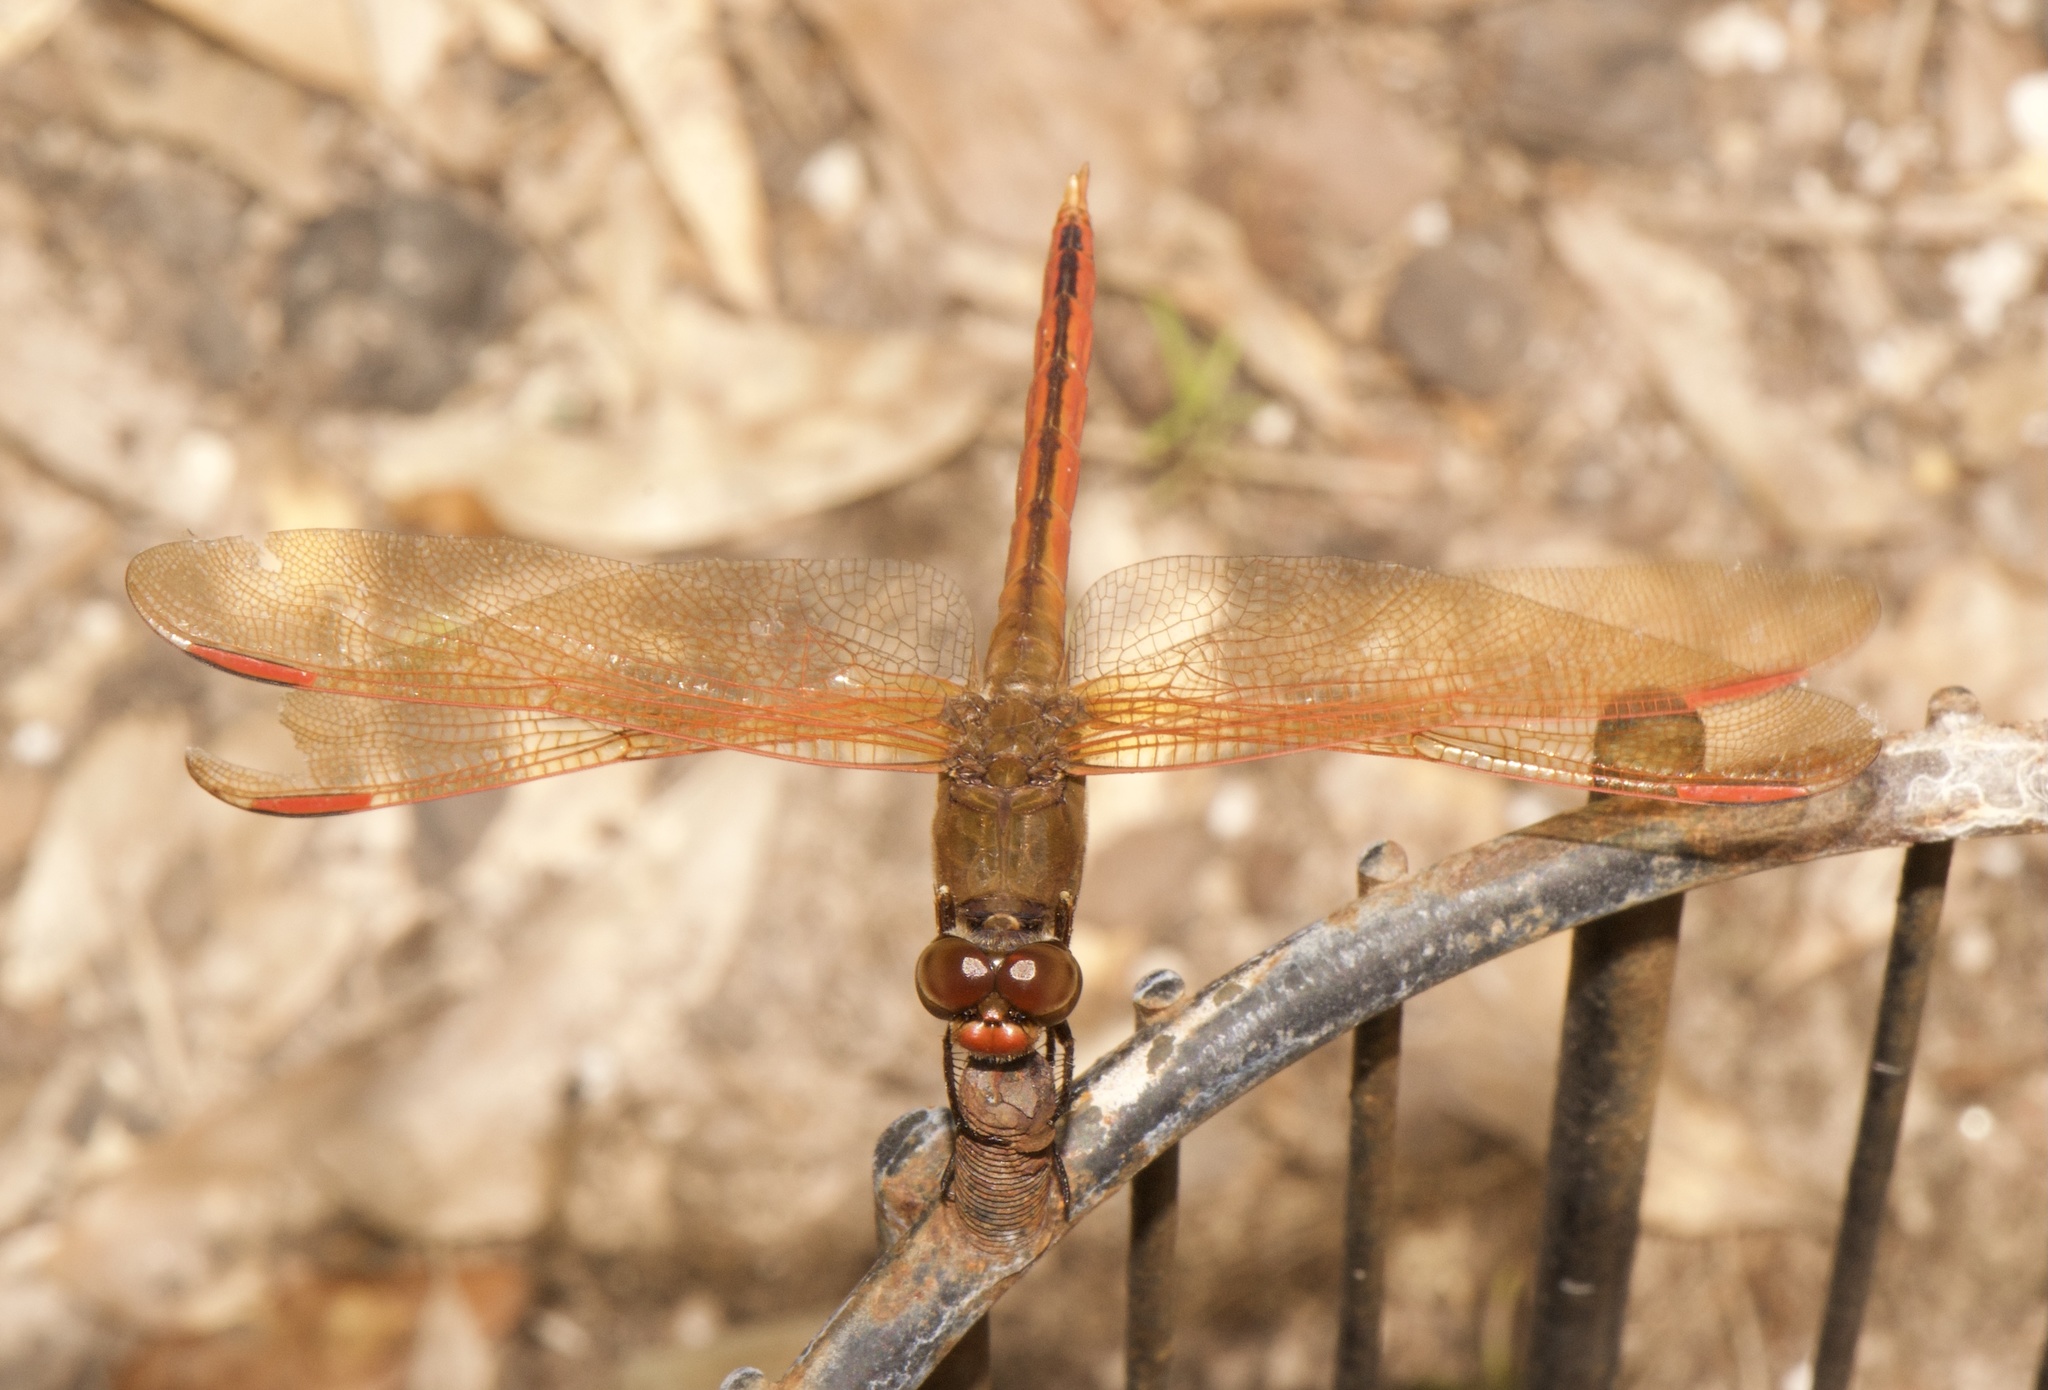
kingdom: Animalia
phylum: Arthropoda
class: Insecta
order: Odonata
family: Libellulidae
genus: Libellula
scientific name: Libellula auripennis
